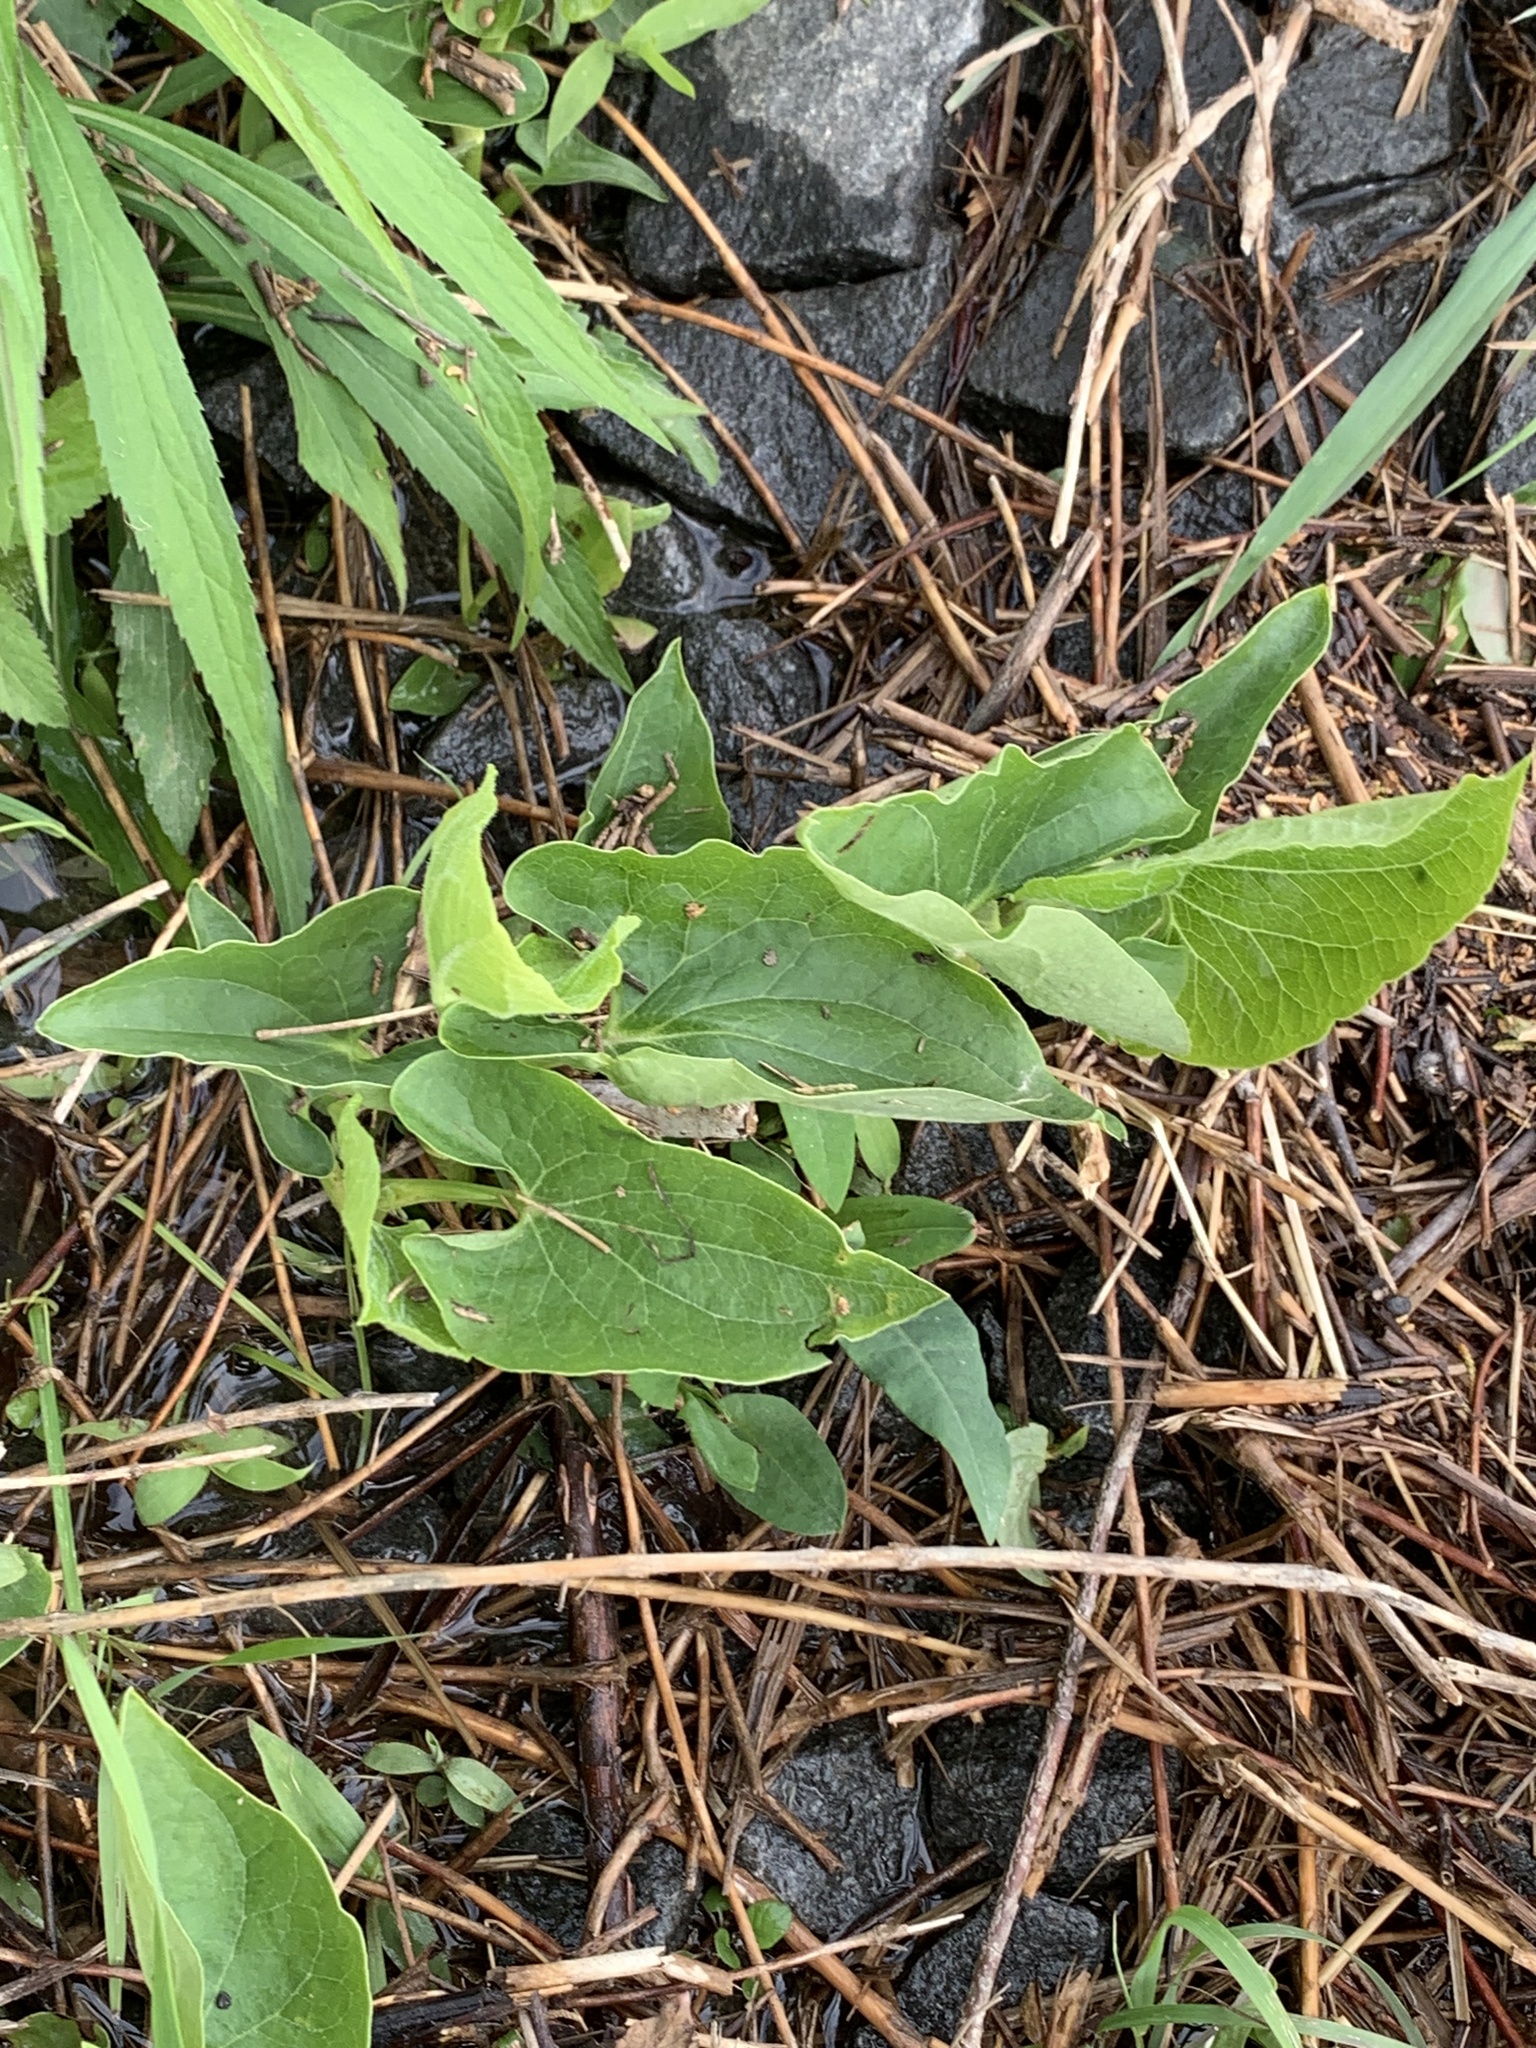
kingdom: Plantae
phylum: Tracheophyta
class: Magnoliopsida
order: Piperales
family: Saururaceae
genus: Saururus
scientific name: Saururus cernuus
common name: Lizard's-tail
